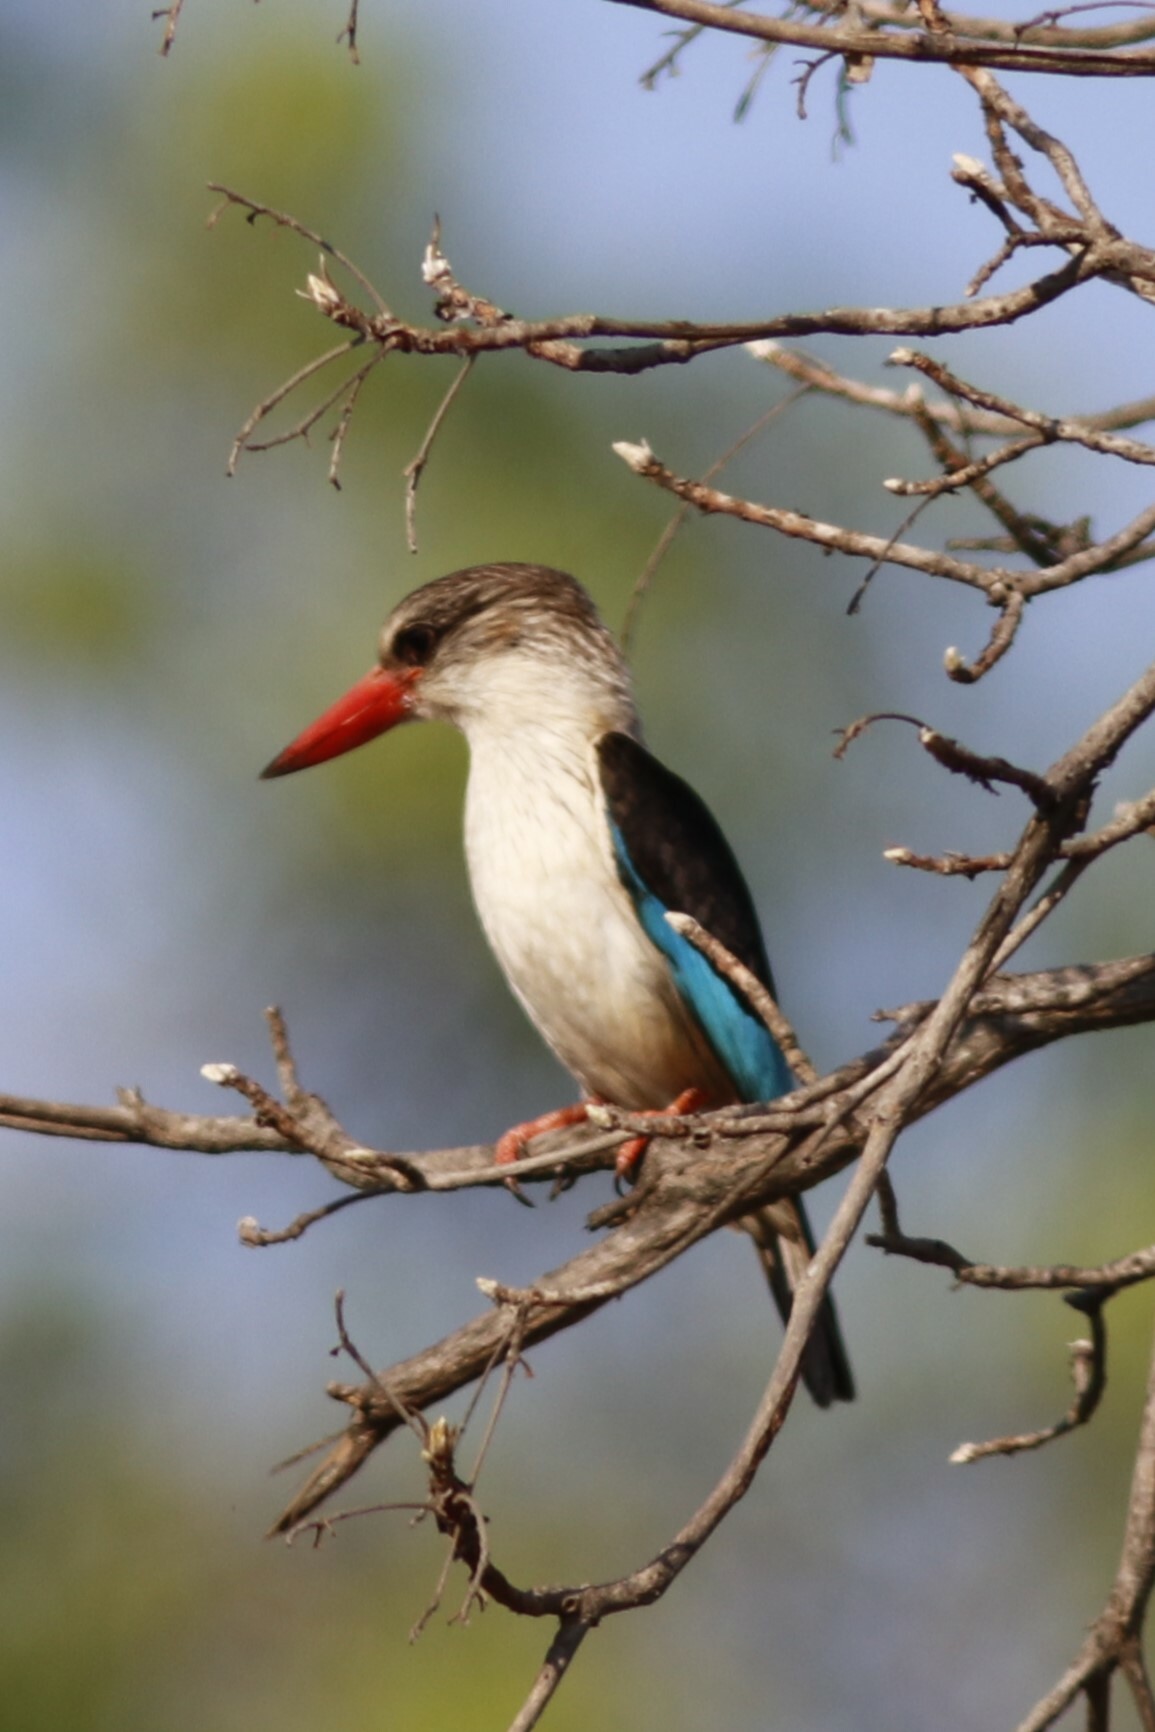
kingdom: Animalia
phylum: Chordata
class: Aves
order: Coraciiformes
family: Alcedinidae
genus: Halcyon
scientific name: Halcyon albiventris
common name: Brown-hooded kingfisher
